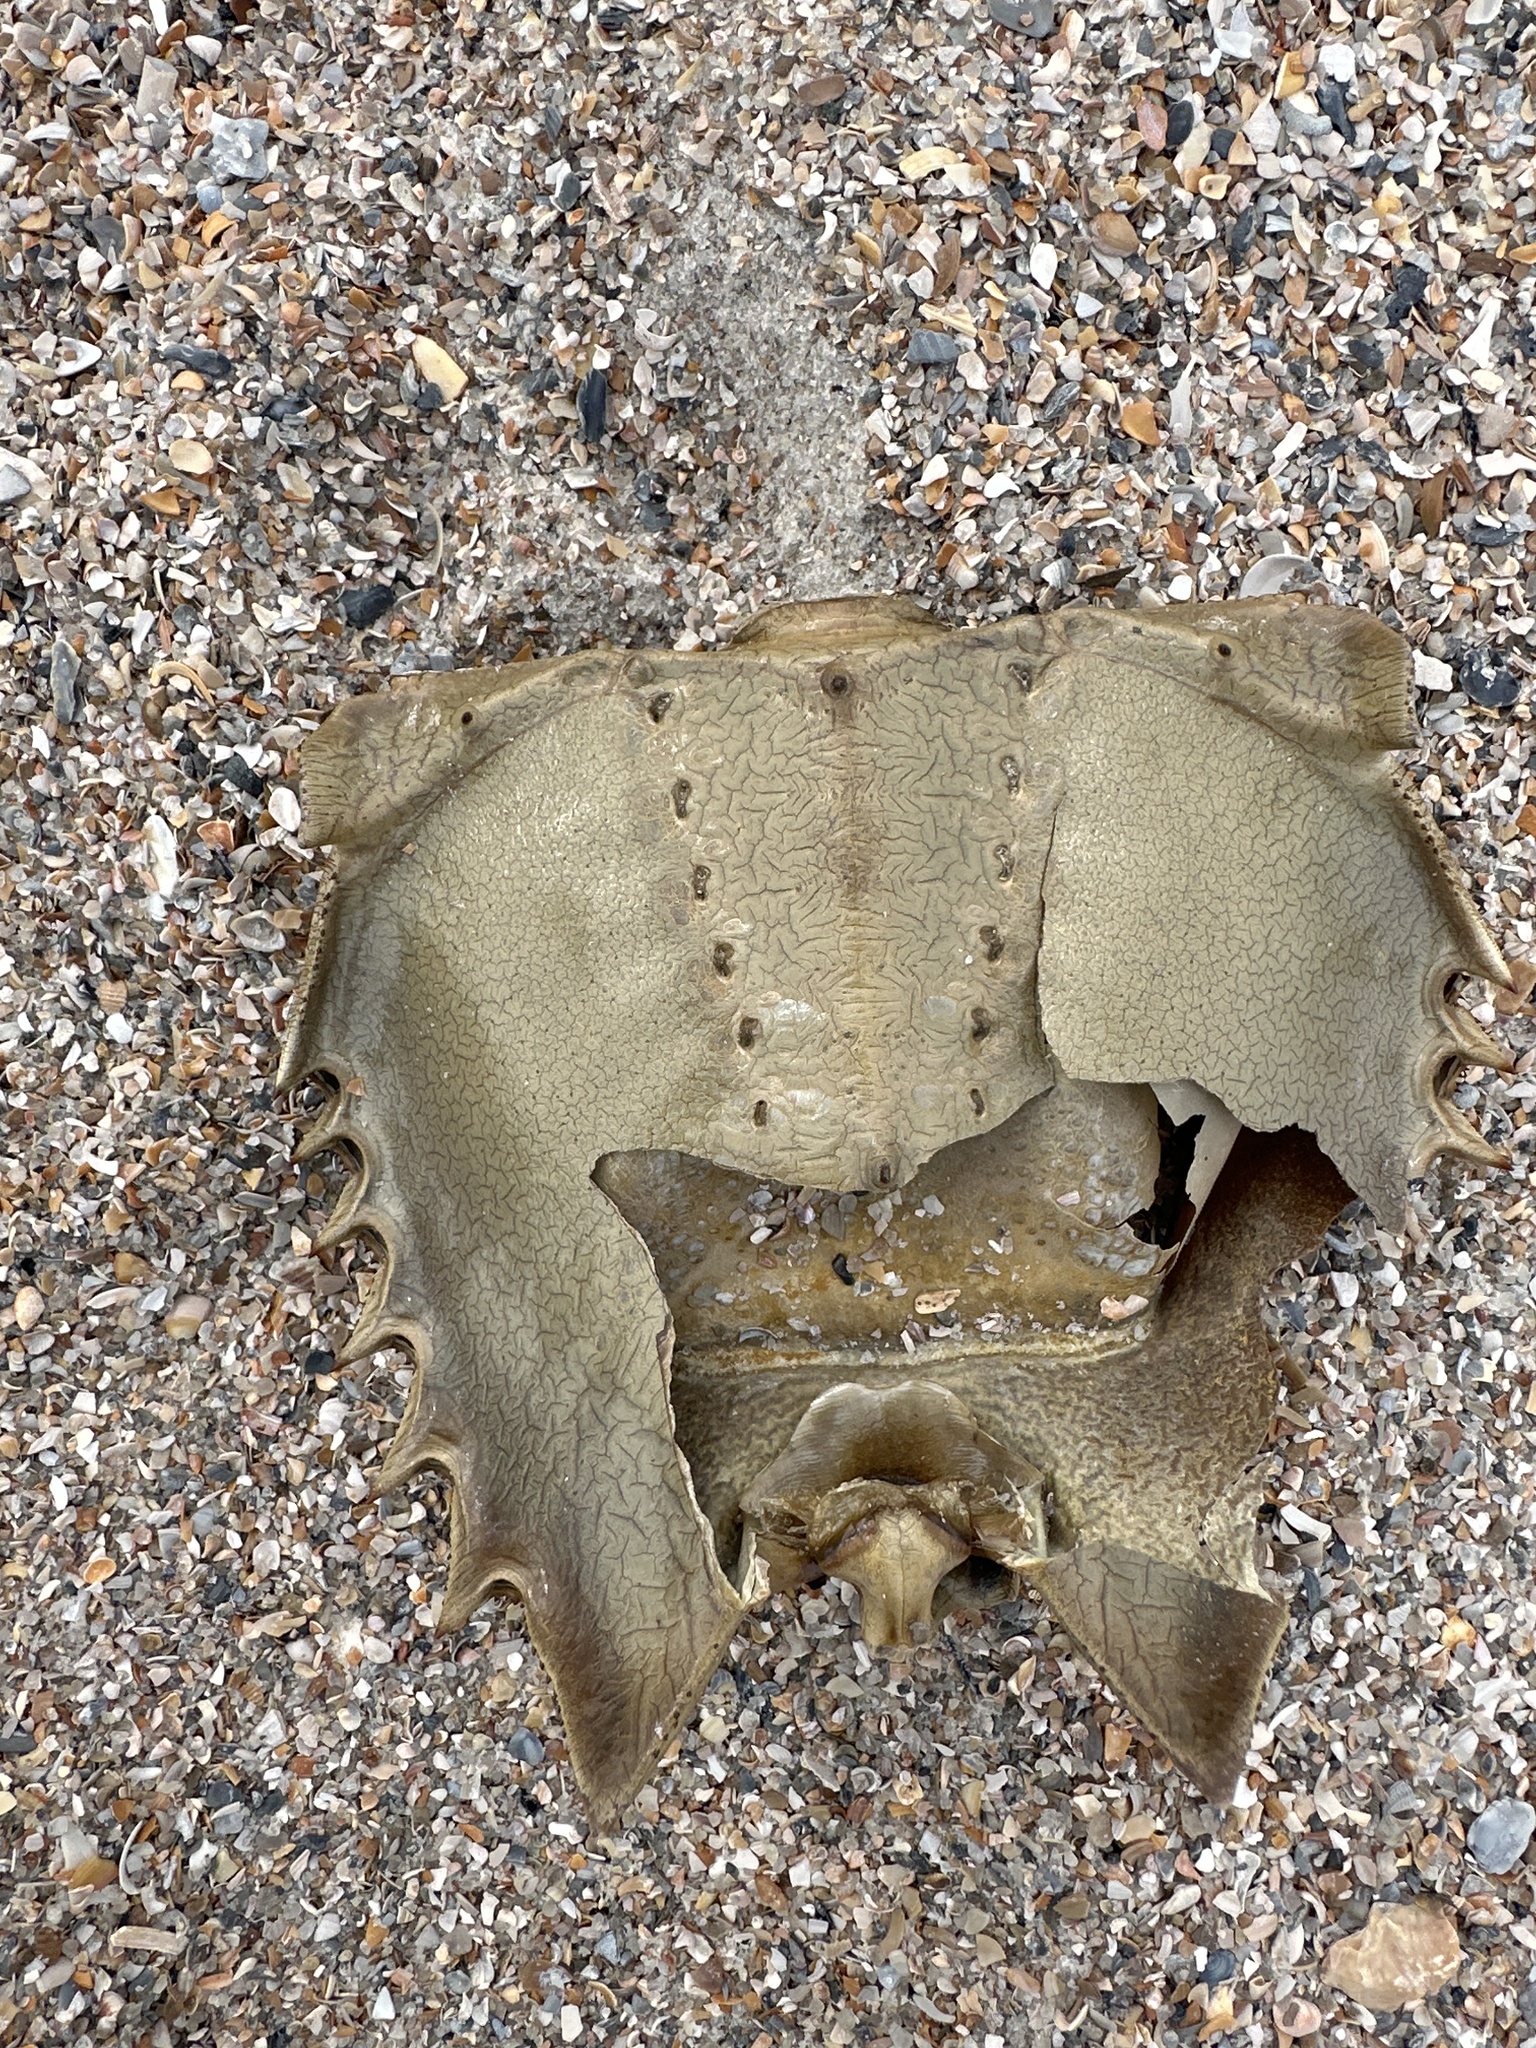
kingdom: Animalia
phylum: Arthropoda
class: Merostomata
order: Xiphosurida
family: Limulidae
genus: Limulus
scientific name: Limulus polyphemus
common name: Horseshoe crab
